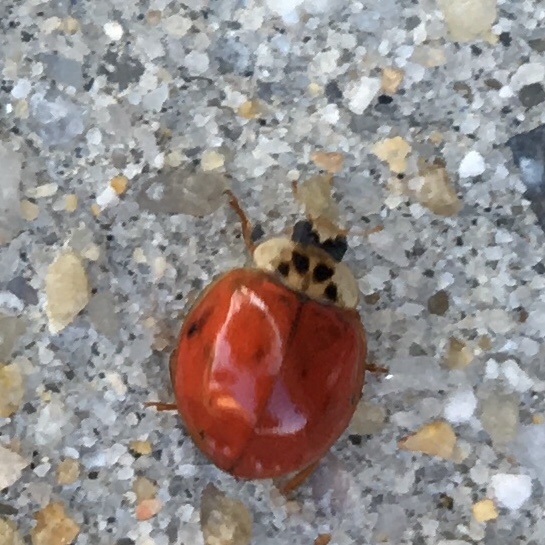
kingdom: Animalia
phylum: Arthropoda
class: Insecta
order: Coleoptera
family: Coccinellidae
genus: Harmonia
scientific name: Harmonia axyridis
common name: Harlequin ladybird
